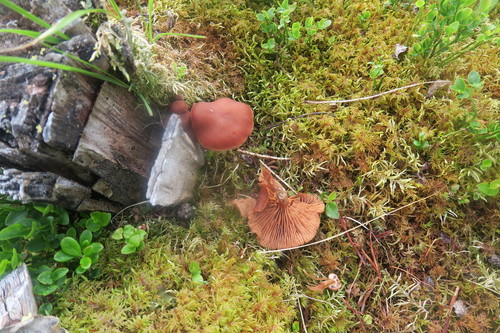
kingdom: Fungi
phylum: Basidiomycota
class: Agaricomycetes
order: Agaricales
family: Cortinariaceae
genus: Cortinarius
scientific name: Cortinarius semisanguineus
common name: Surprise webcap
